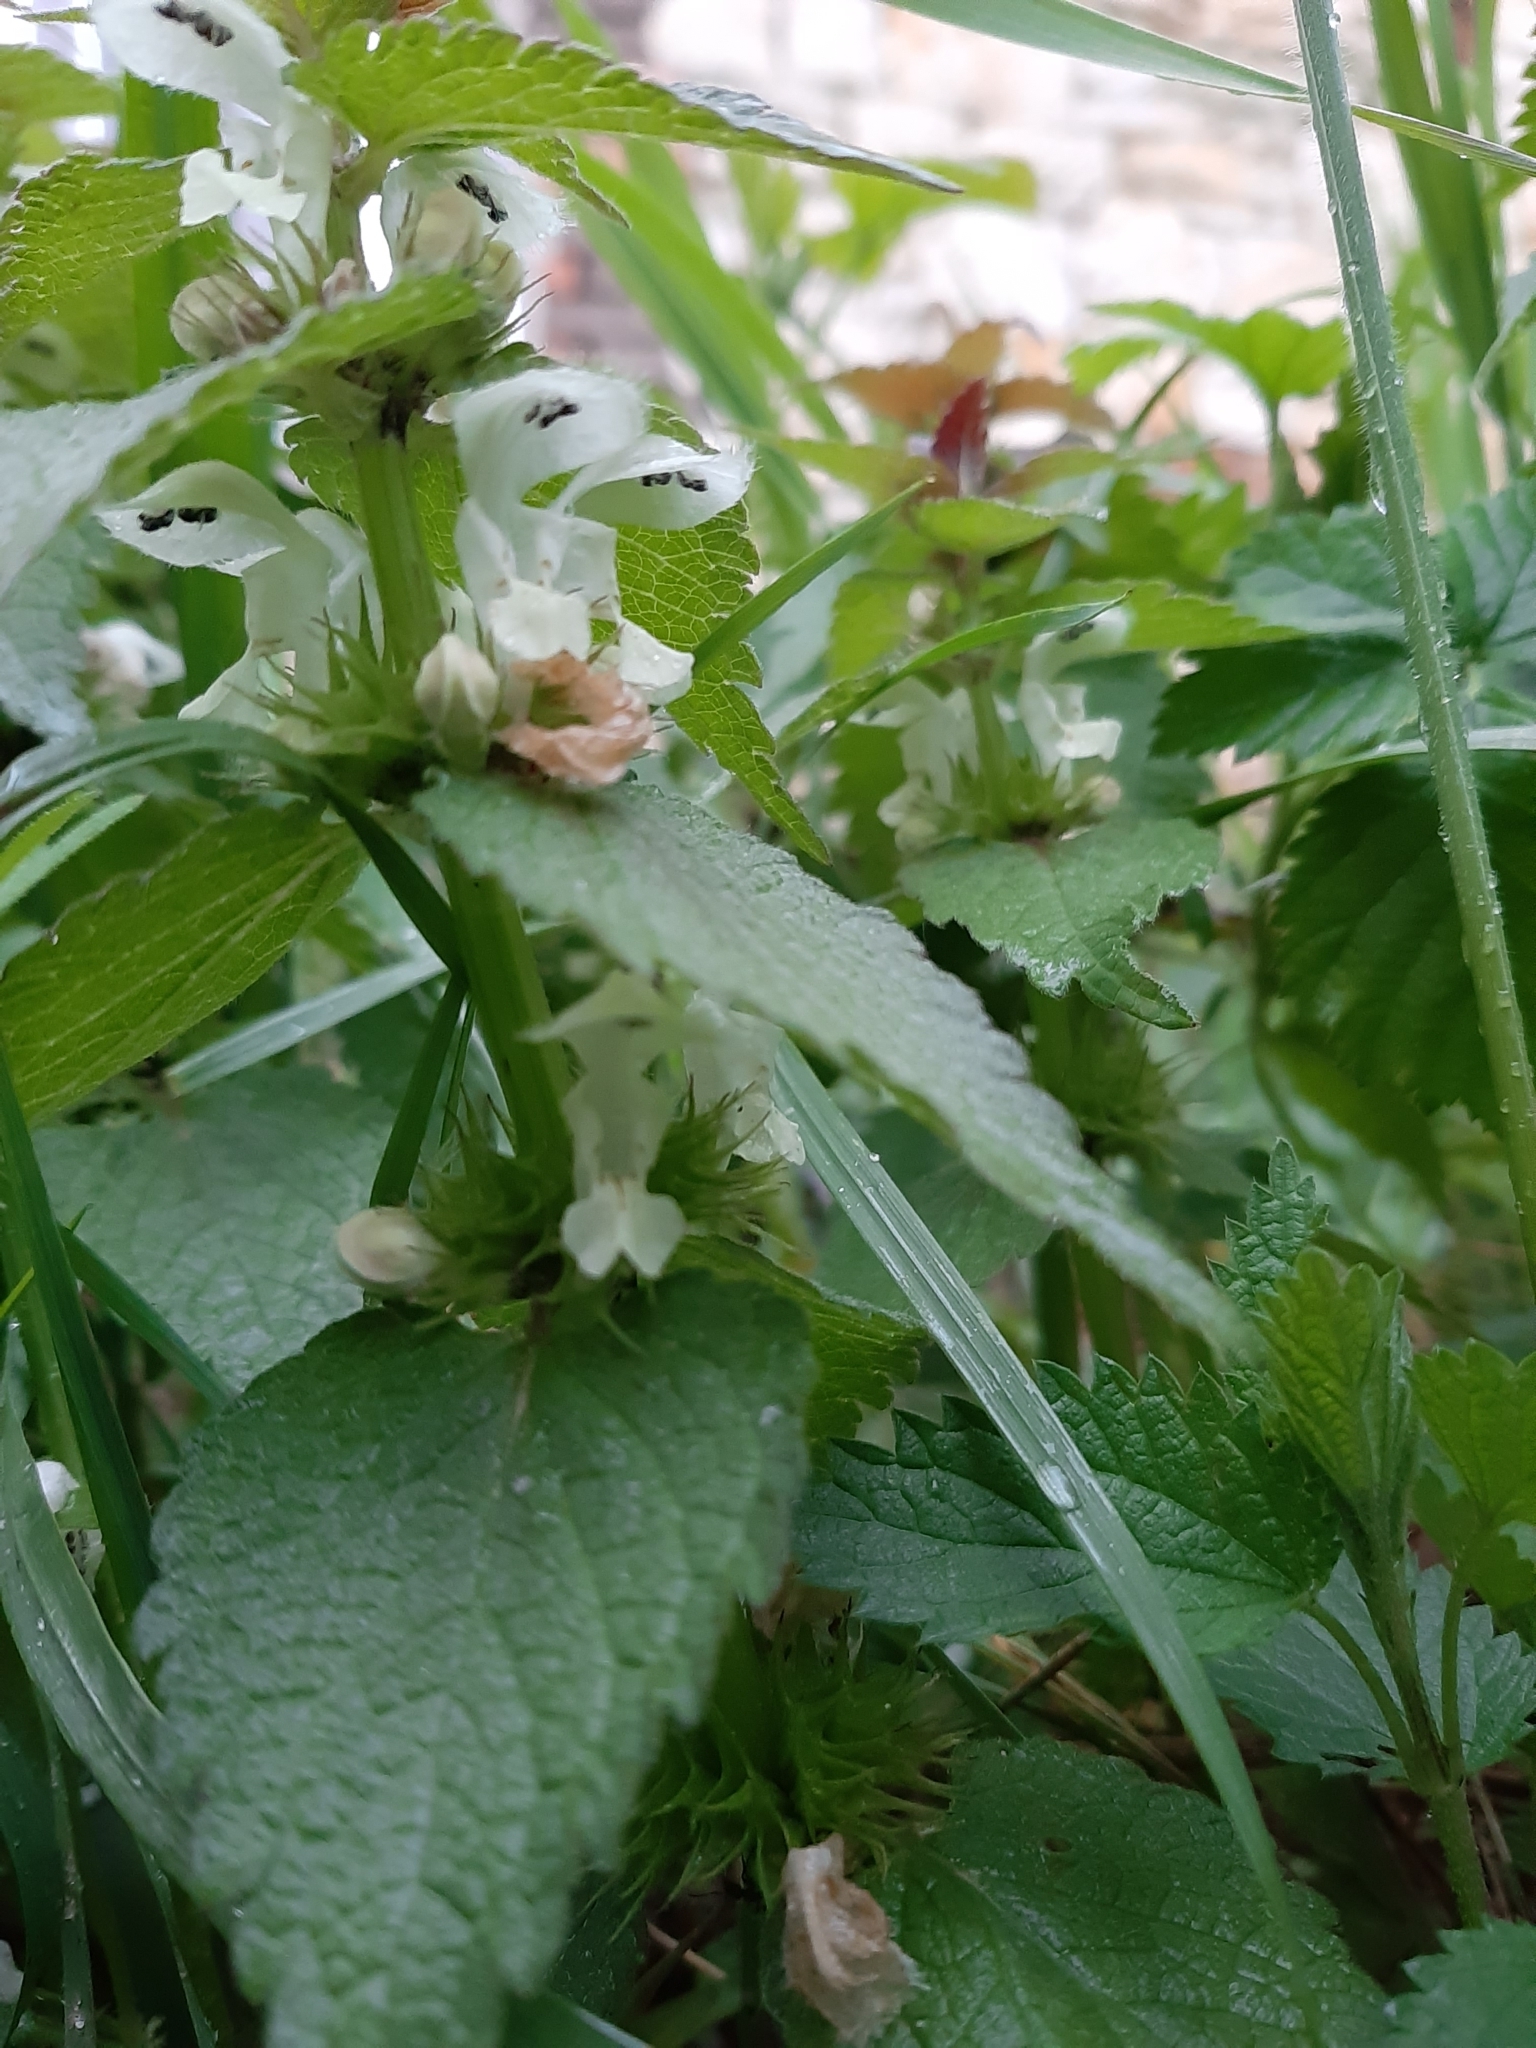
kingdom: Plantae
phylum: Tracheophyta
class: Magnoliopsida
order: Lamiales
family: Lamiaceae
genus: Lamium
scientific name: Lamium album
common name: White dead-nettle
